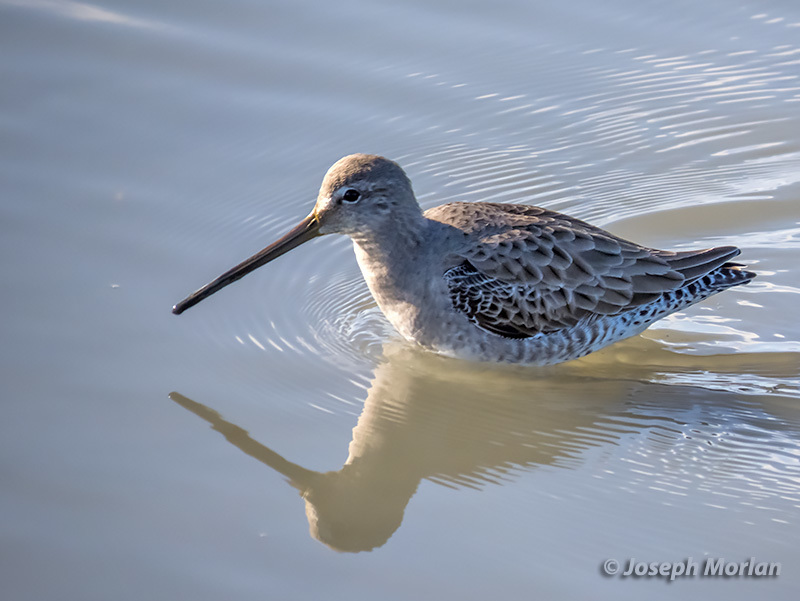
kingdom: Animalia
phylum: Chordata
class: Aves
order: Charadriiformes
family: Scolopacidae
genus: Limnodromus
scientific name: Limnodromus scolopaceus
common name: Long-billed dowitcher
